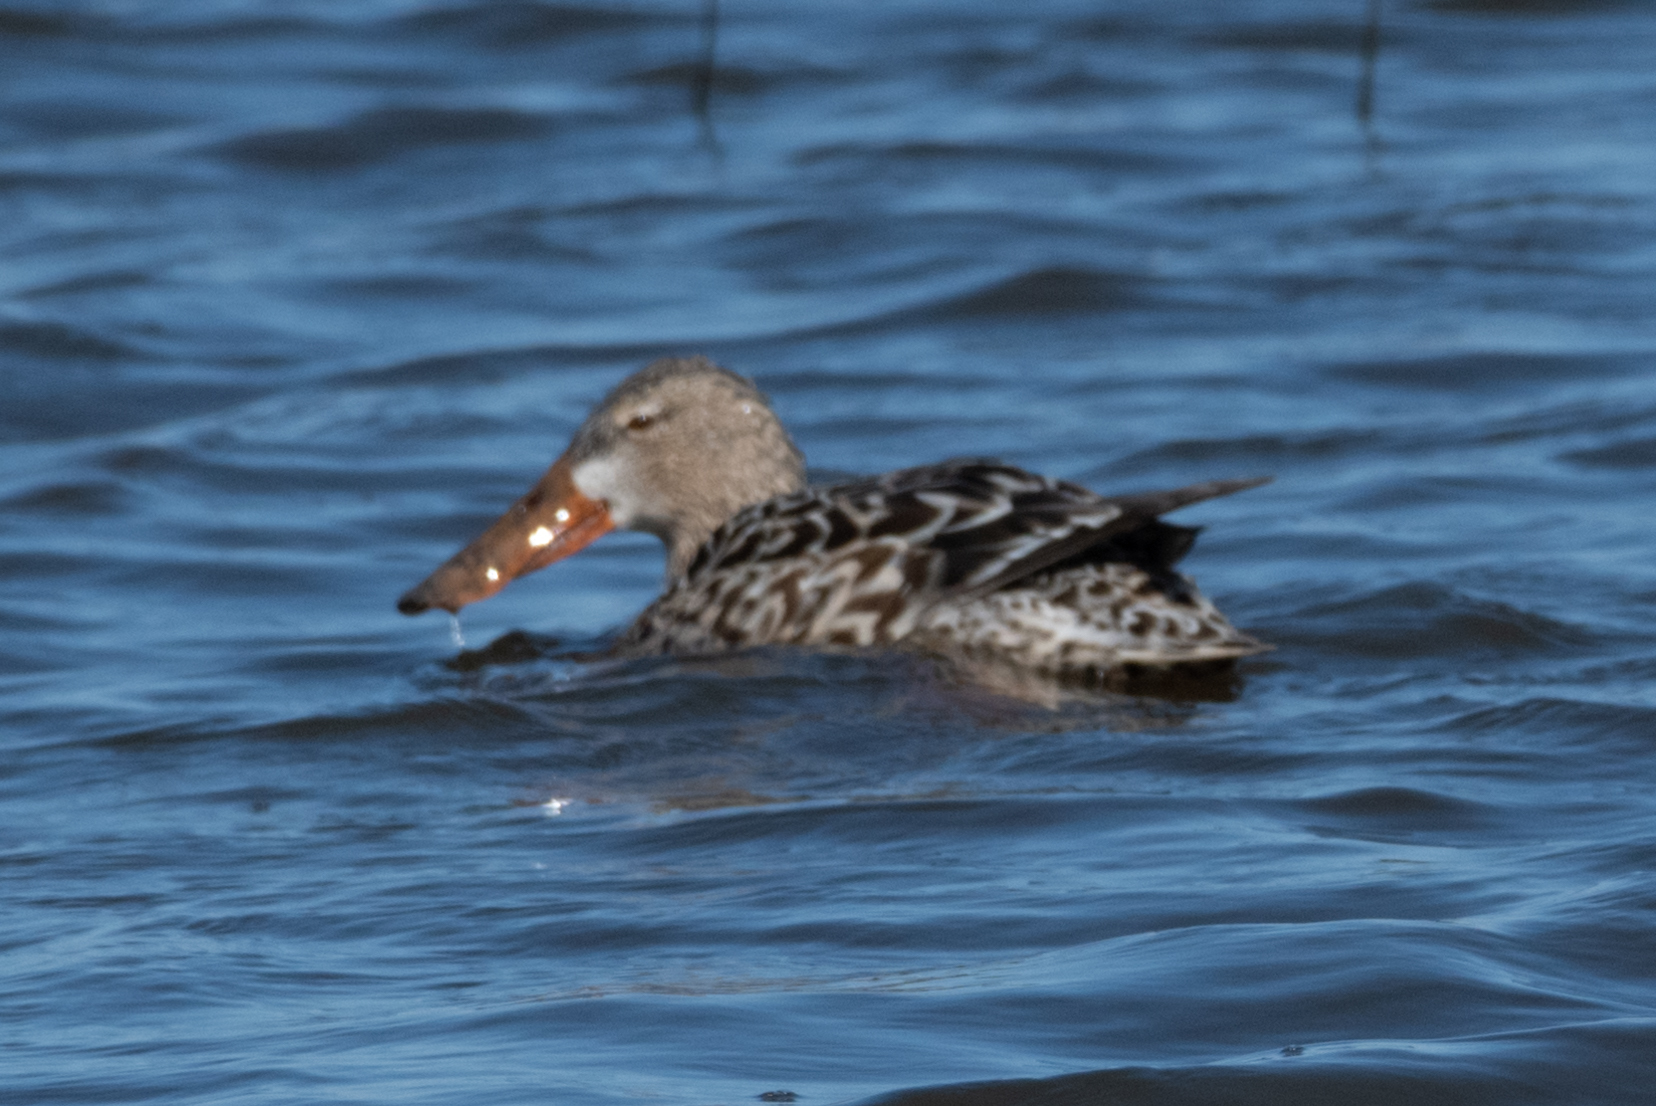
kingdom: Animalia
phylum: Chordata
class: Aves
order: Anseriformes
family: Anatidae
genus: Spatula
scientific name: Spatula clypeata
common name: Northern shoveler
